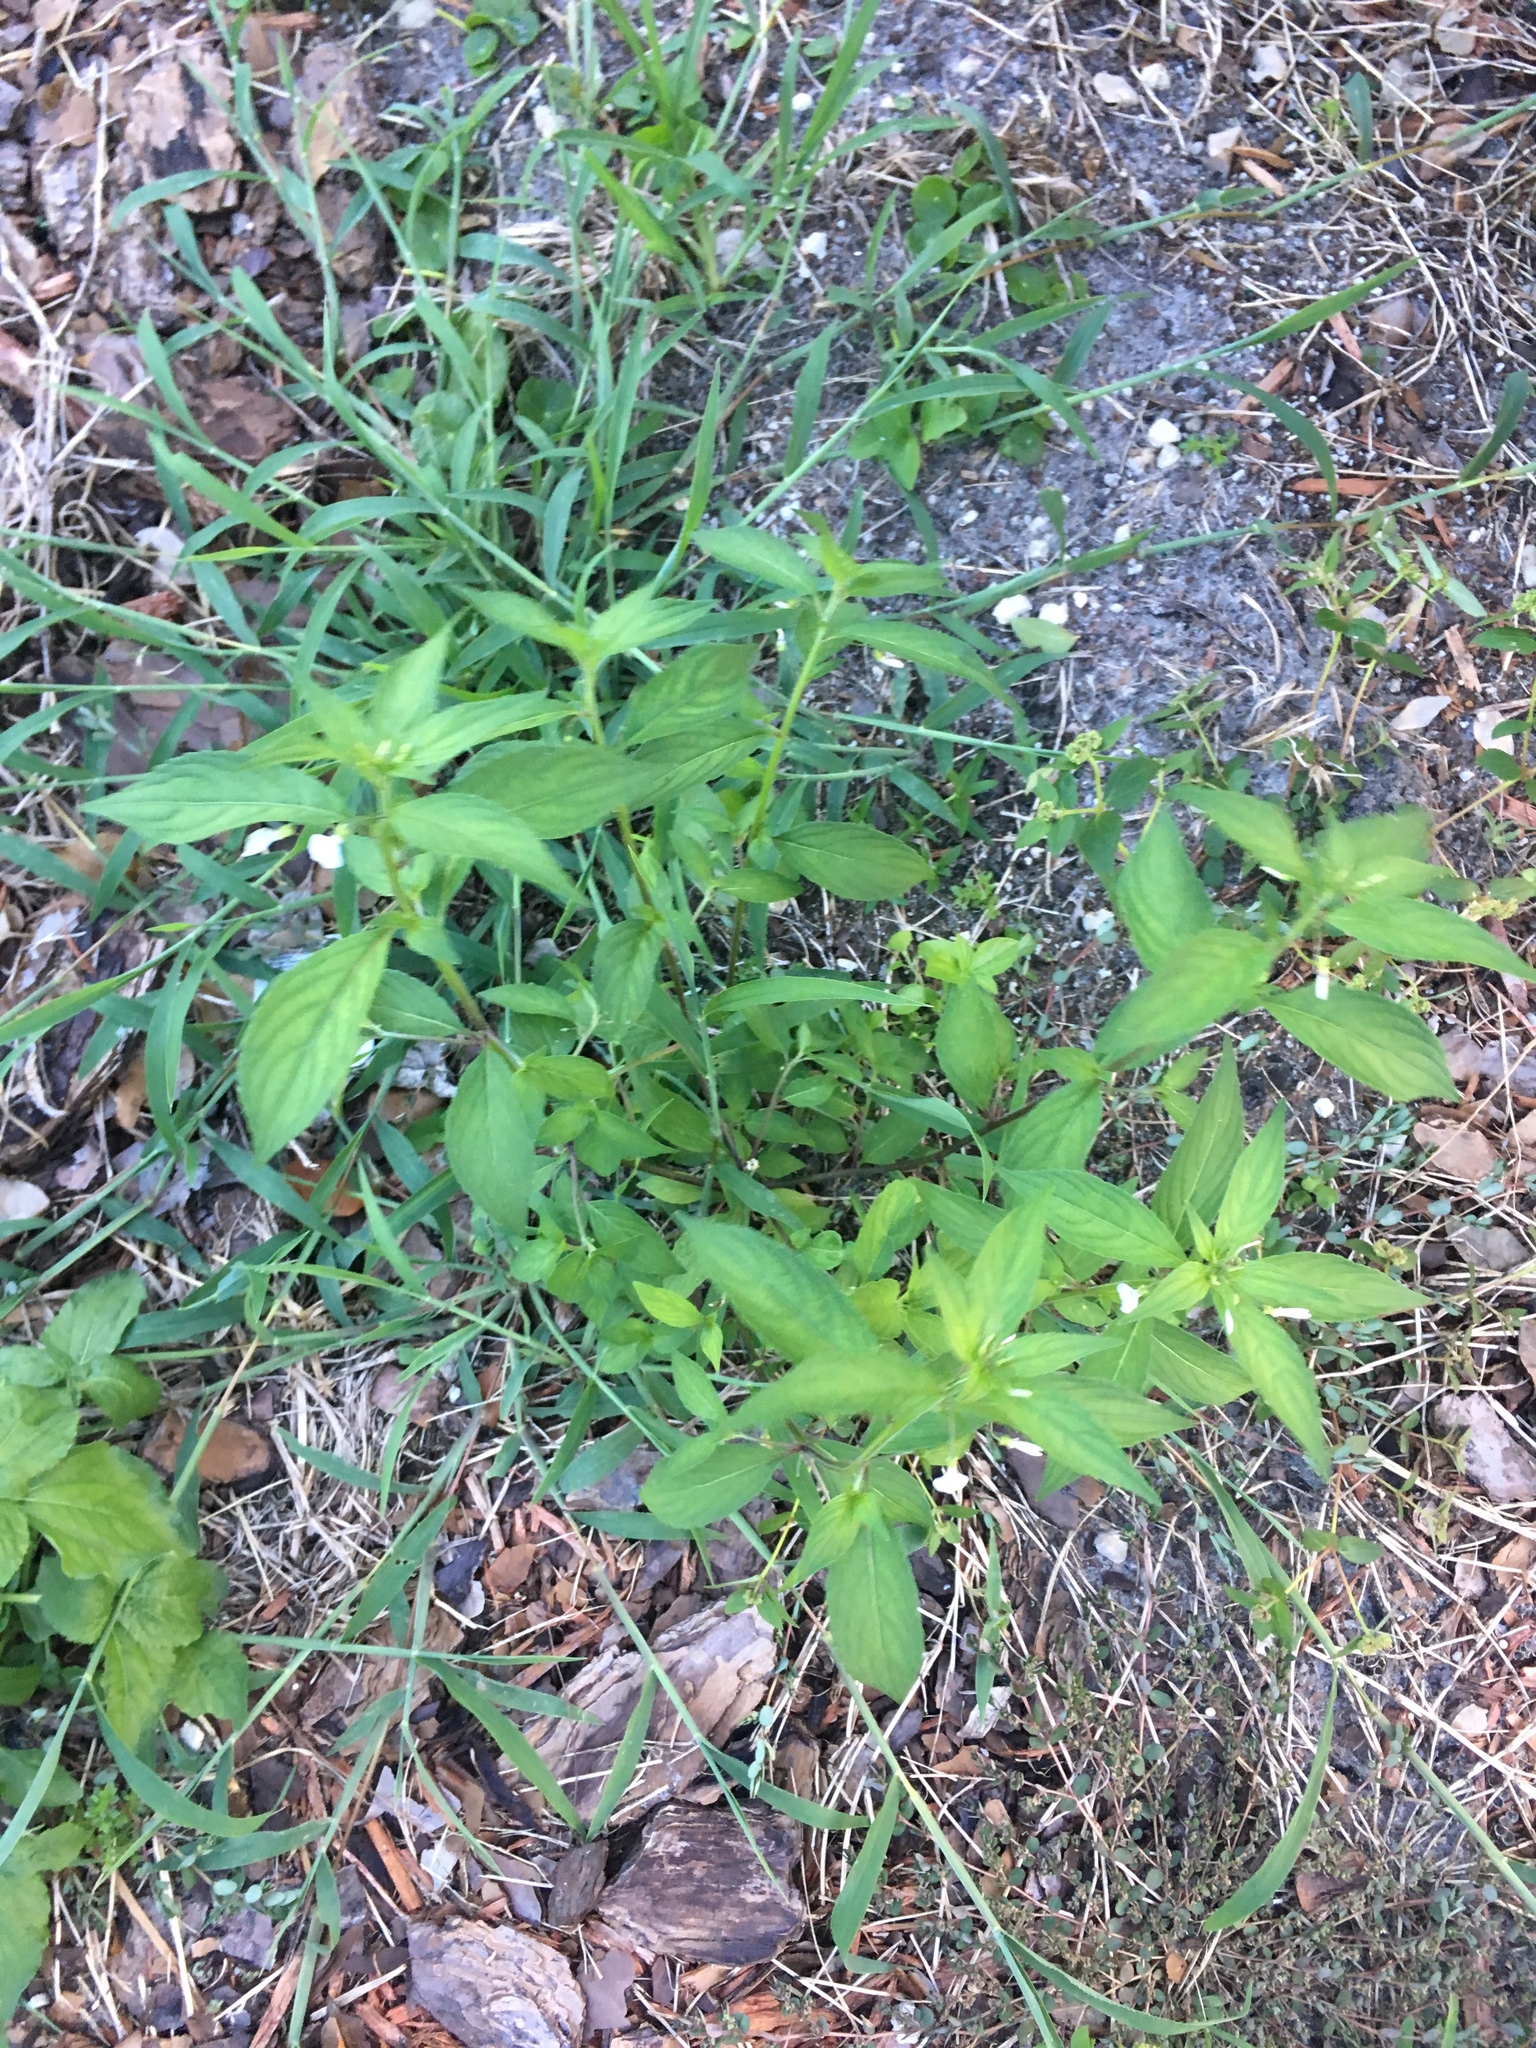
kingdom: Plantae
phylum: Tracheophyta
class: Magnoliopsida
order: Malpighiales
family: Violaceae
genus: Pombalia
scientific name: Pombalia linearifolia
